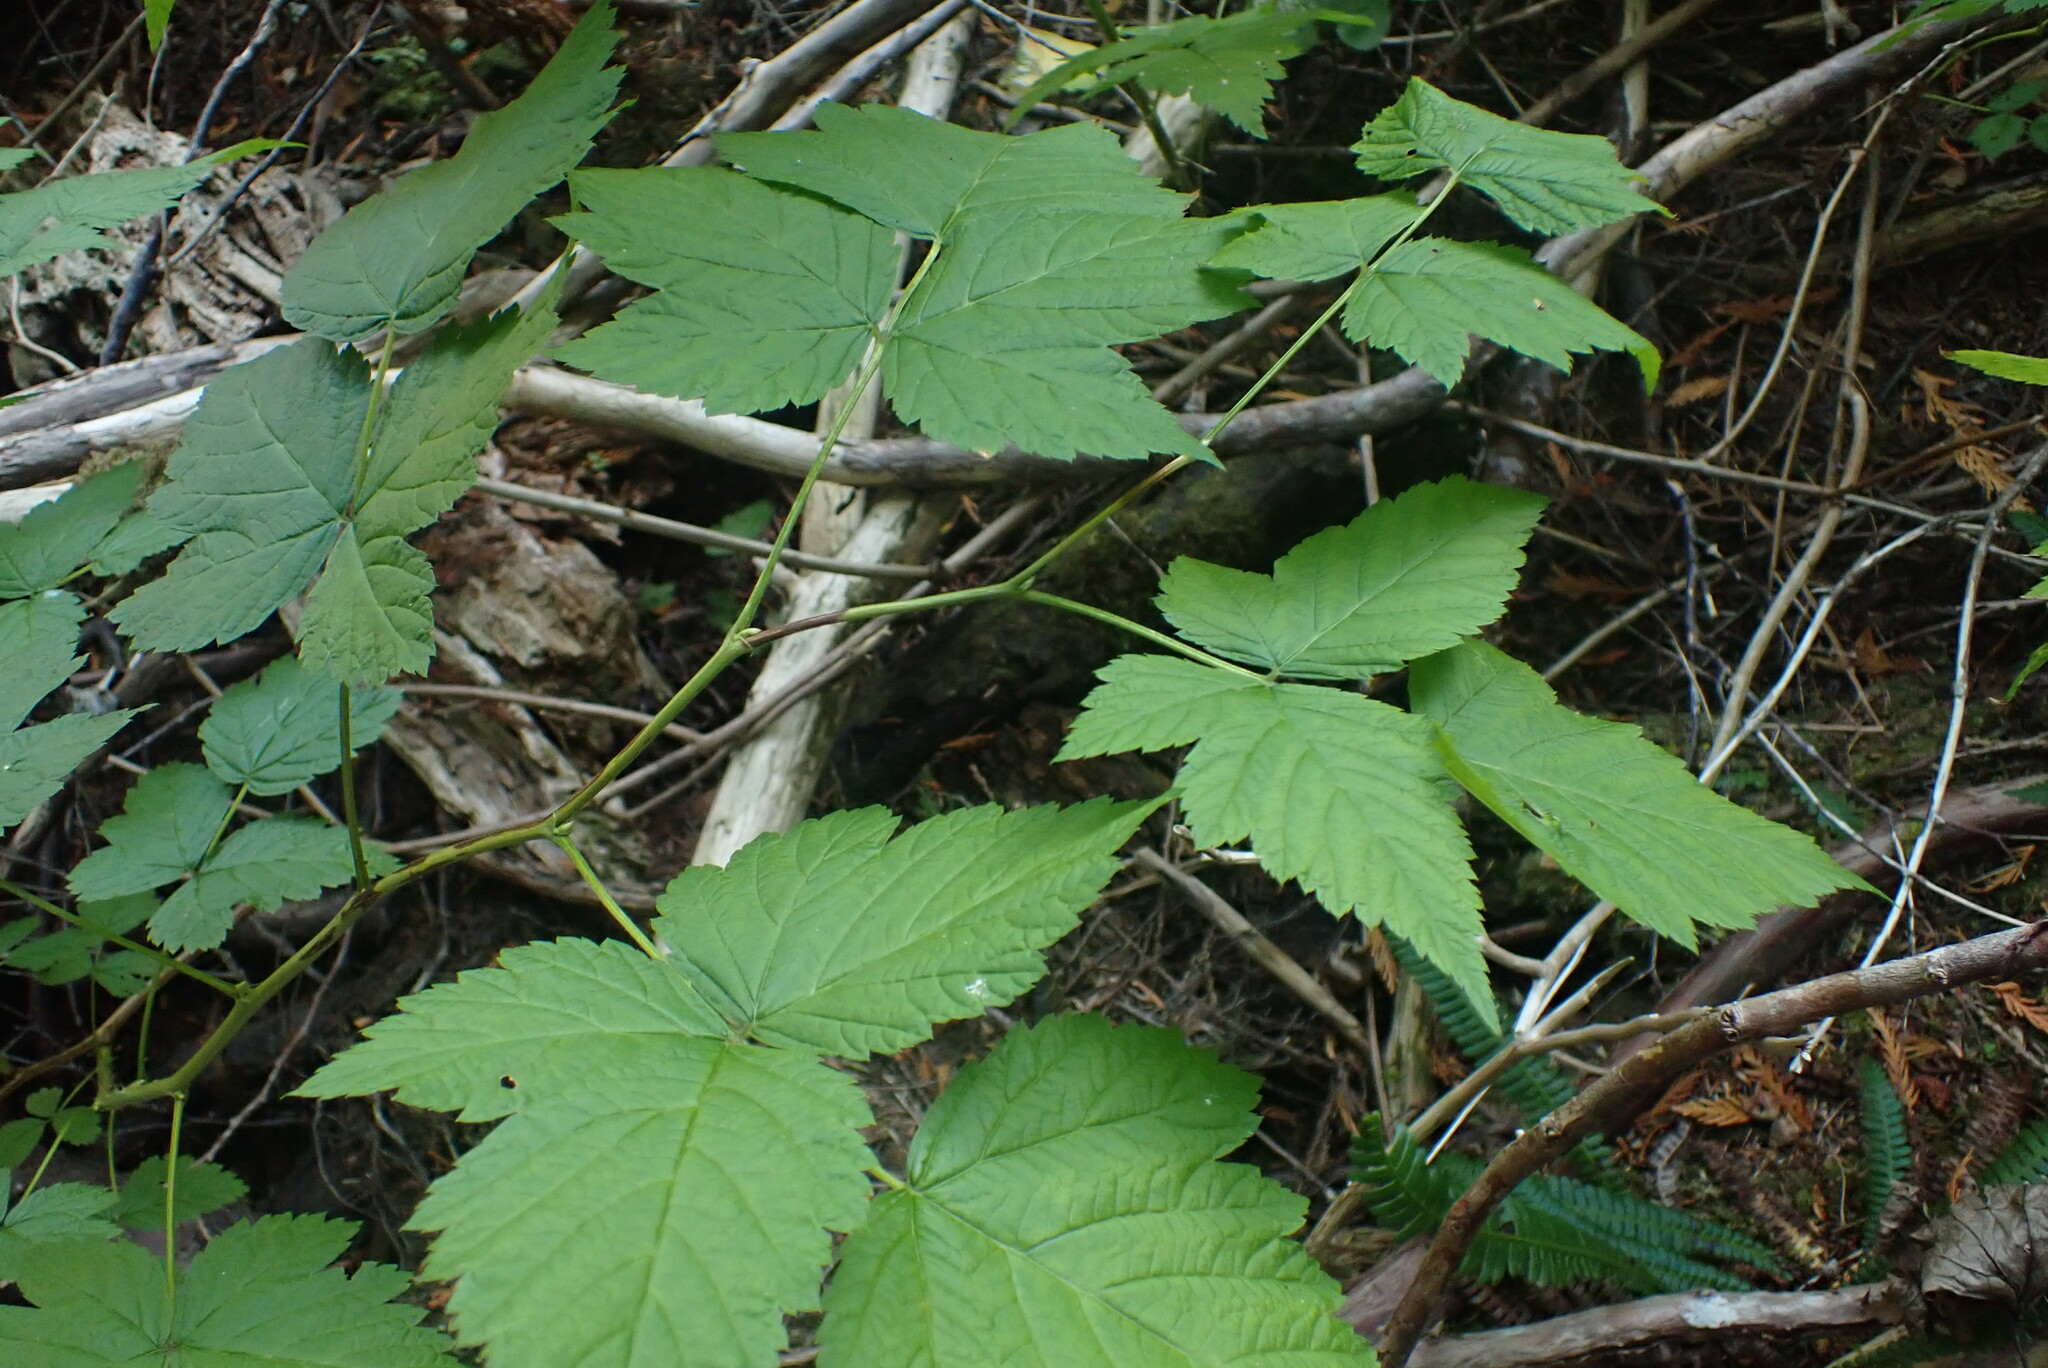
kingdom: Plantae
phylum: Tracheophyta
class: Magnoliopsida
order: Rosales
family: Rosaceae
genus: Rubus
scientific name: Rubus spectabilis
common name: Salmonberry
